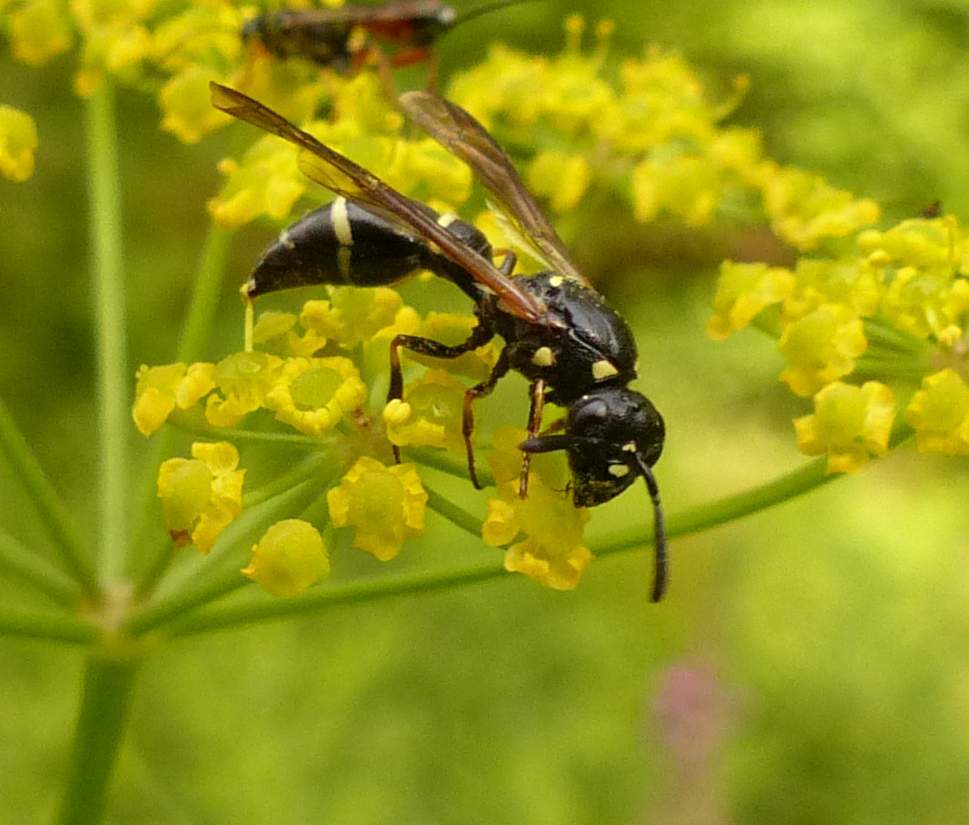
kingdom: Animalia
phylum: Arthropoda
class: Insecta
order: Hymenoptera
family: Eumenidae
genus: Symmorphus
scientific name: Symmorphus canadensis
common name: Canadian potter wasp
